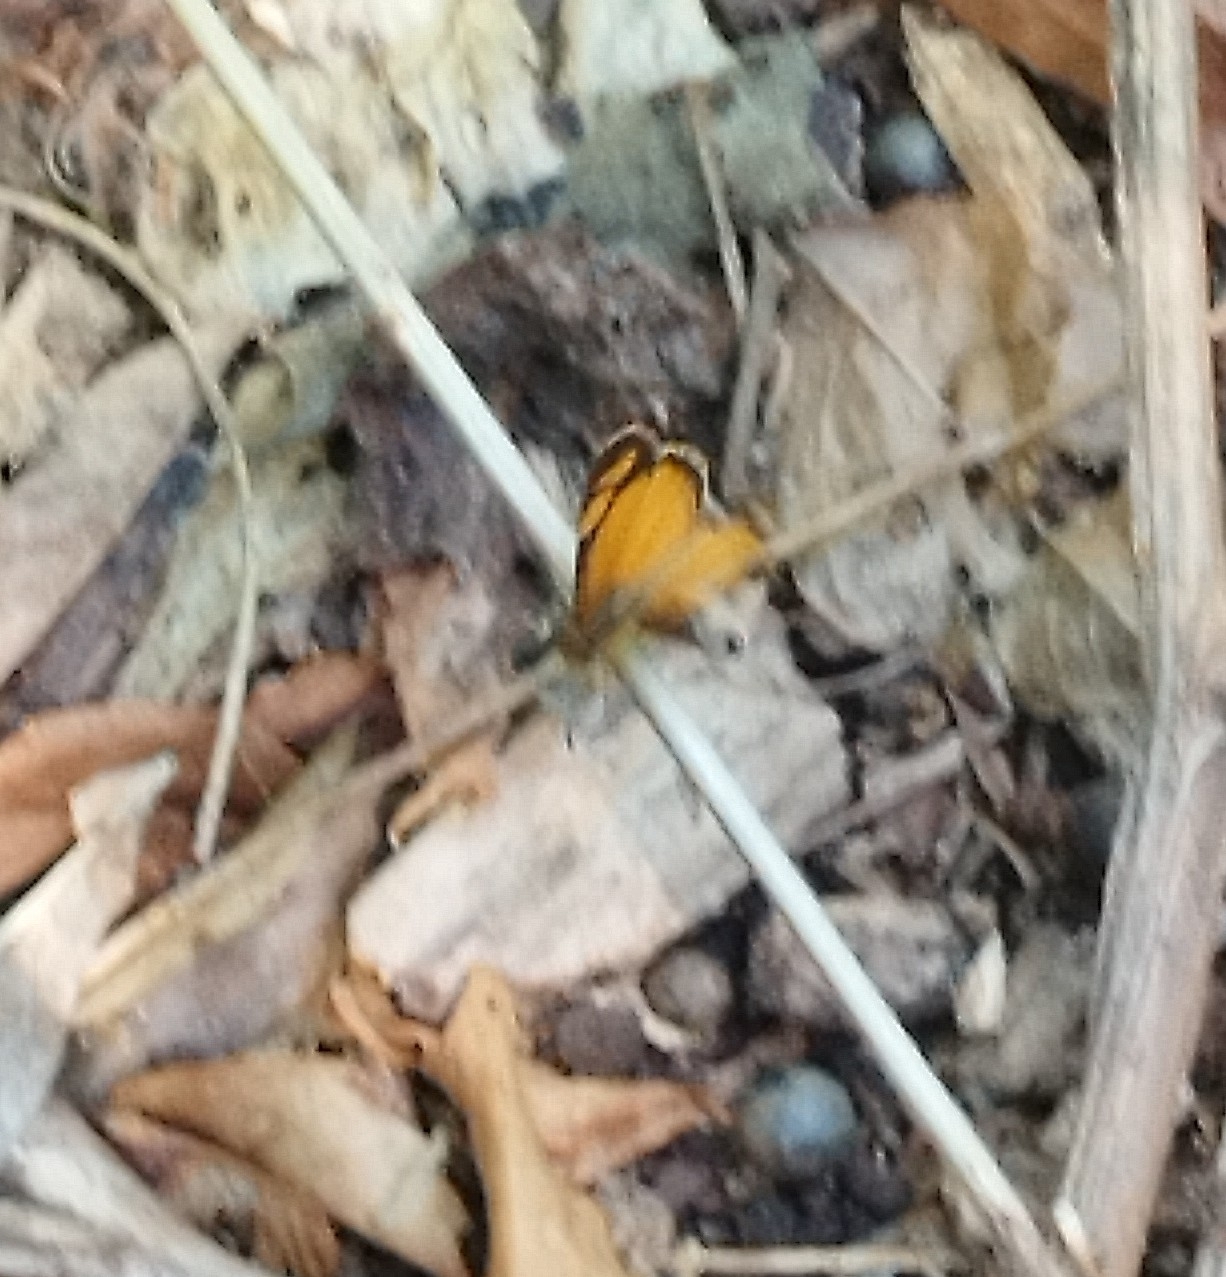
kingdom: Animalia
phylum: Arthropoda
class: Insecta
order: Lepidoptera
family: Nymphalidae
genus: Tegosa
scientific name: Tegosa claudina
